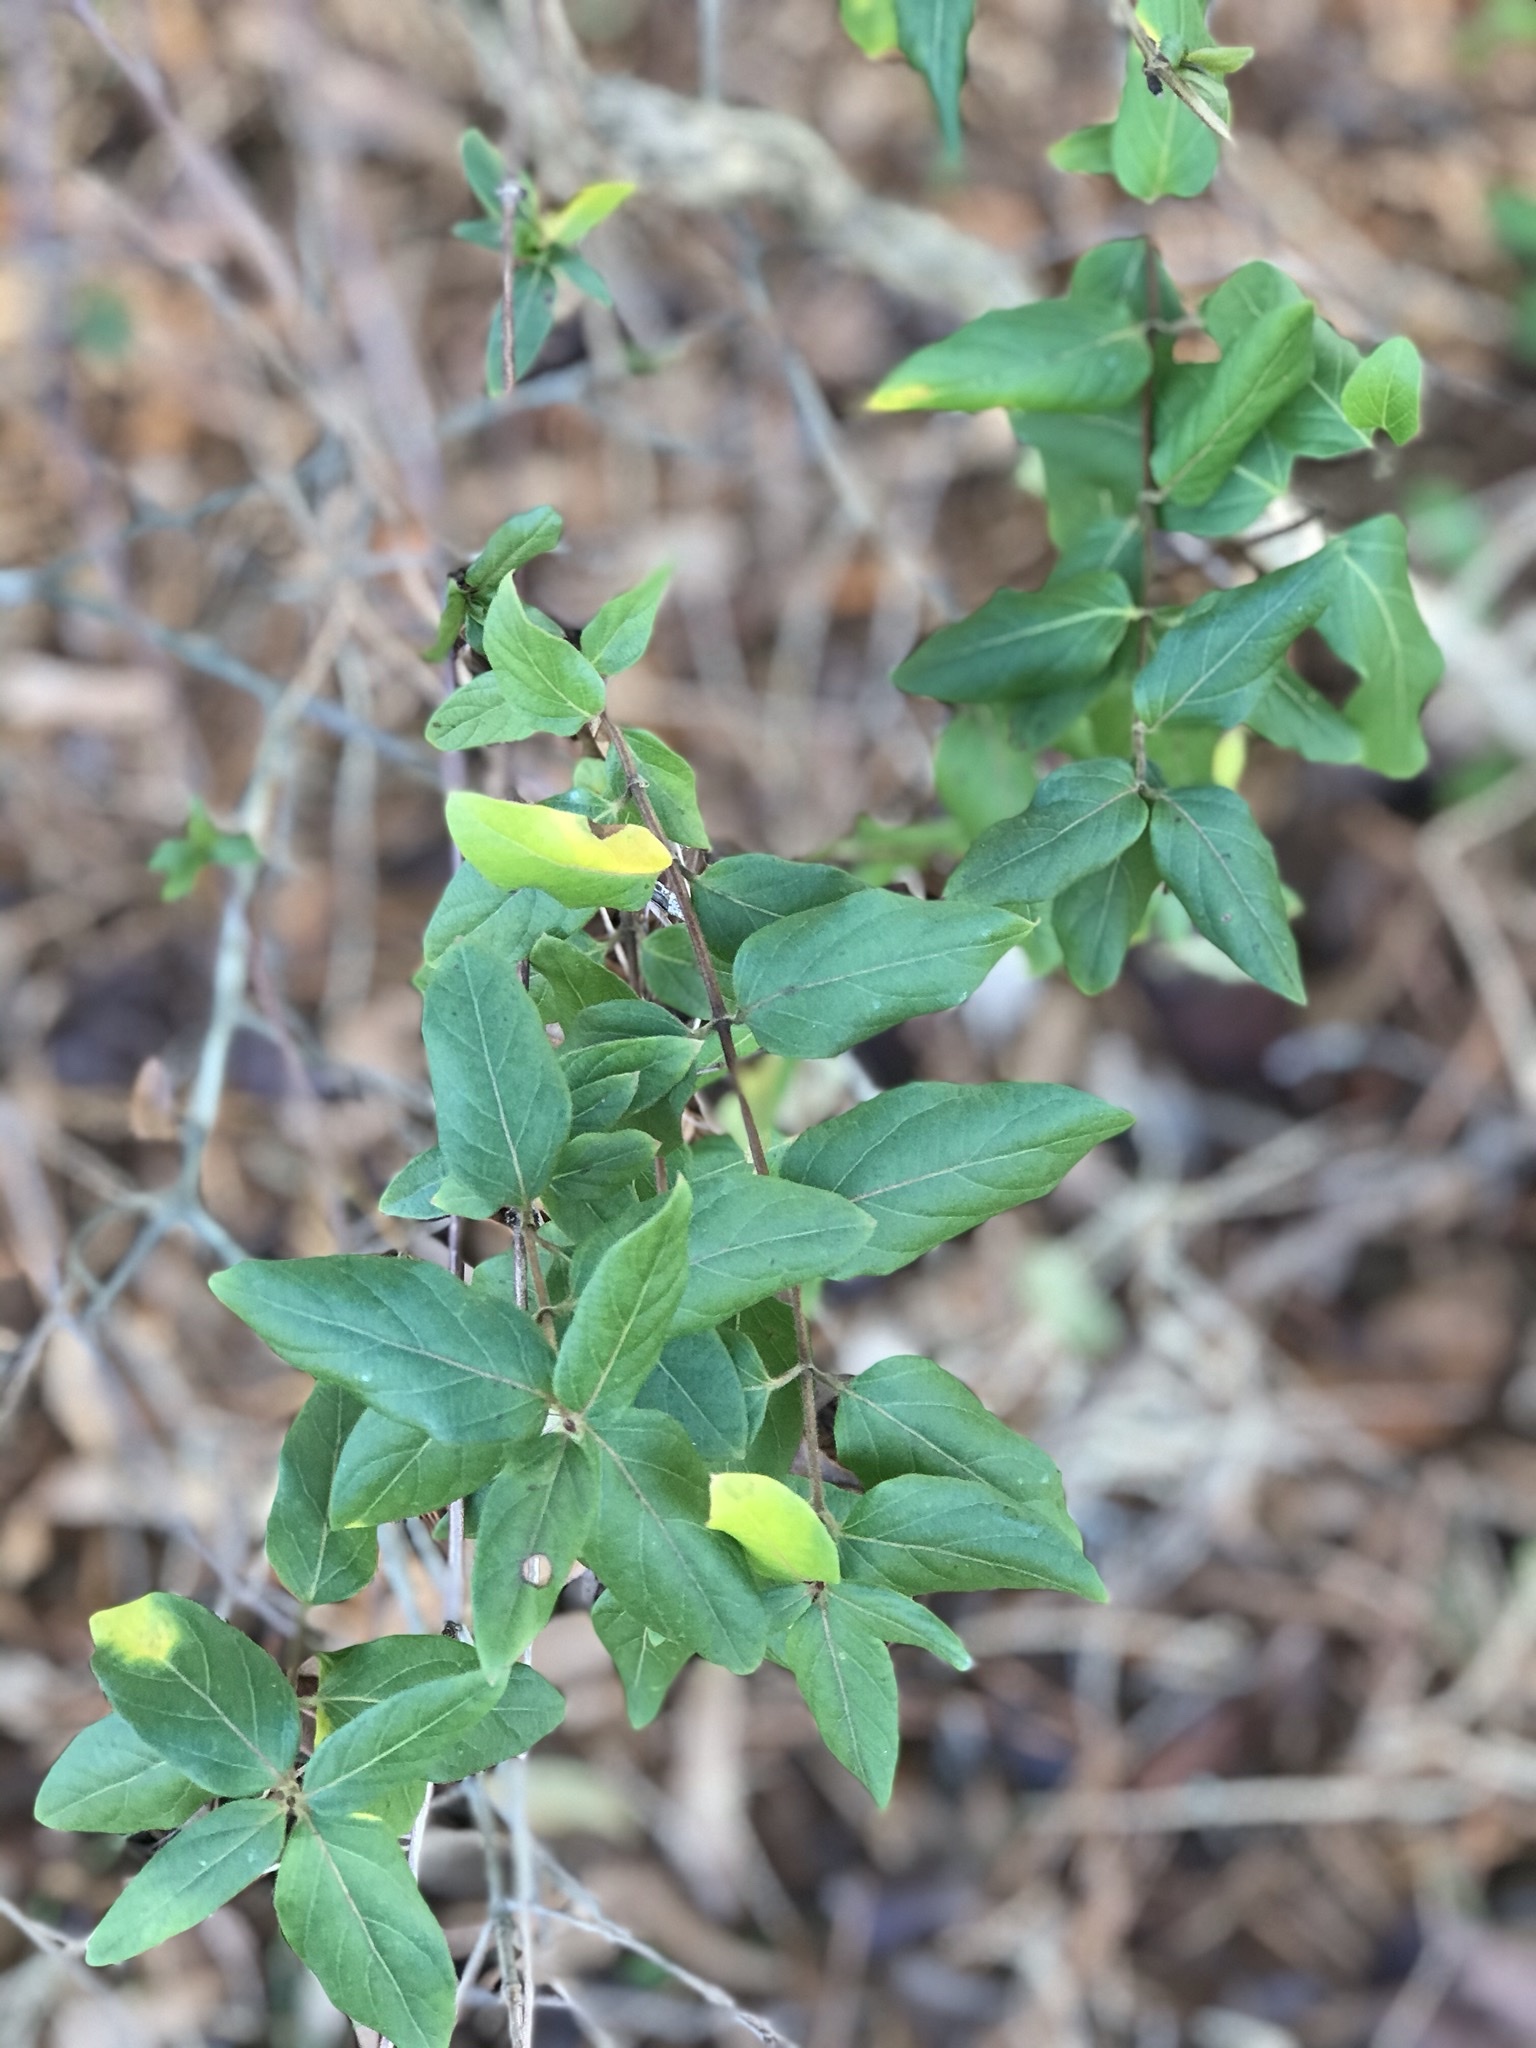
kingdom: Plantae
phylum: Tracheophyta
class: Magnoliopsida
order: Dipsacales
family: Caprifoliaceae
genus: Lonicera
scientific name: Lonicera japonica
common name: Japanese honeysuckle
